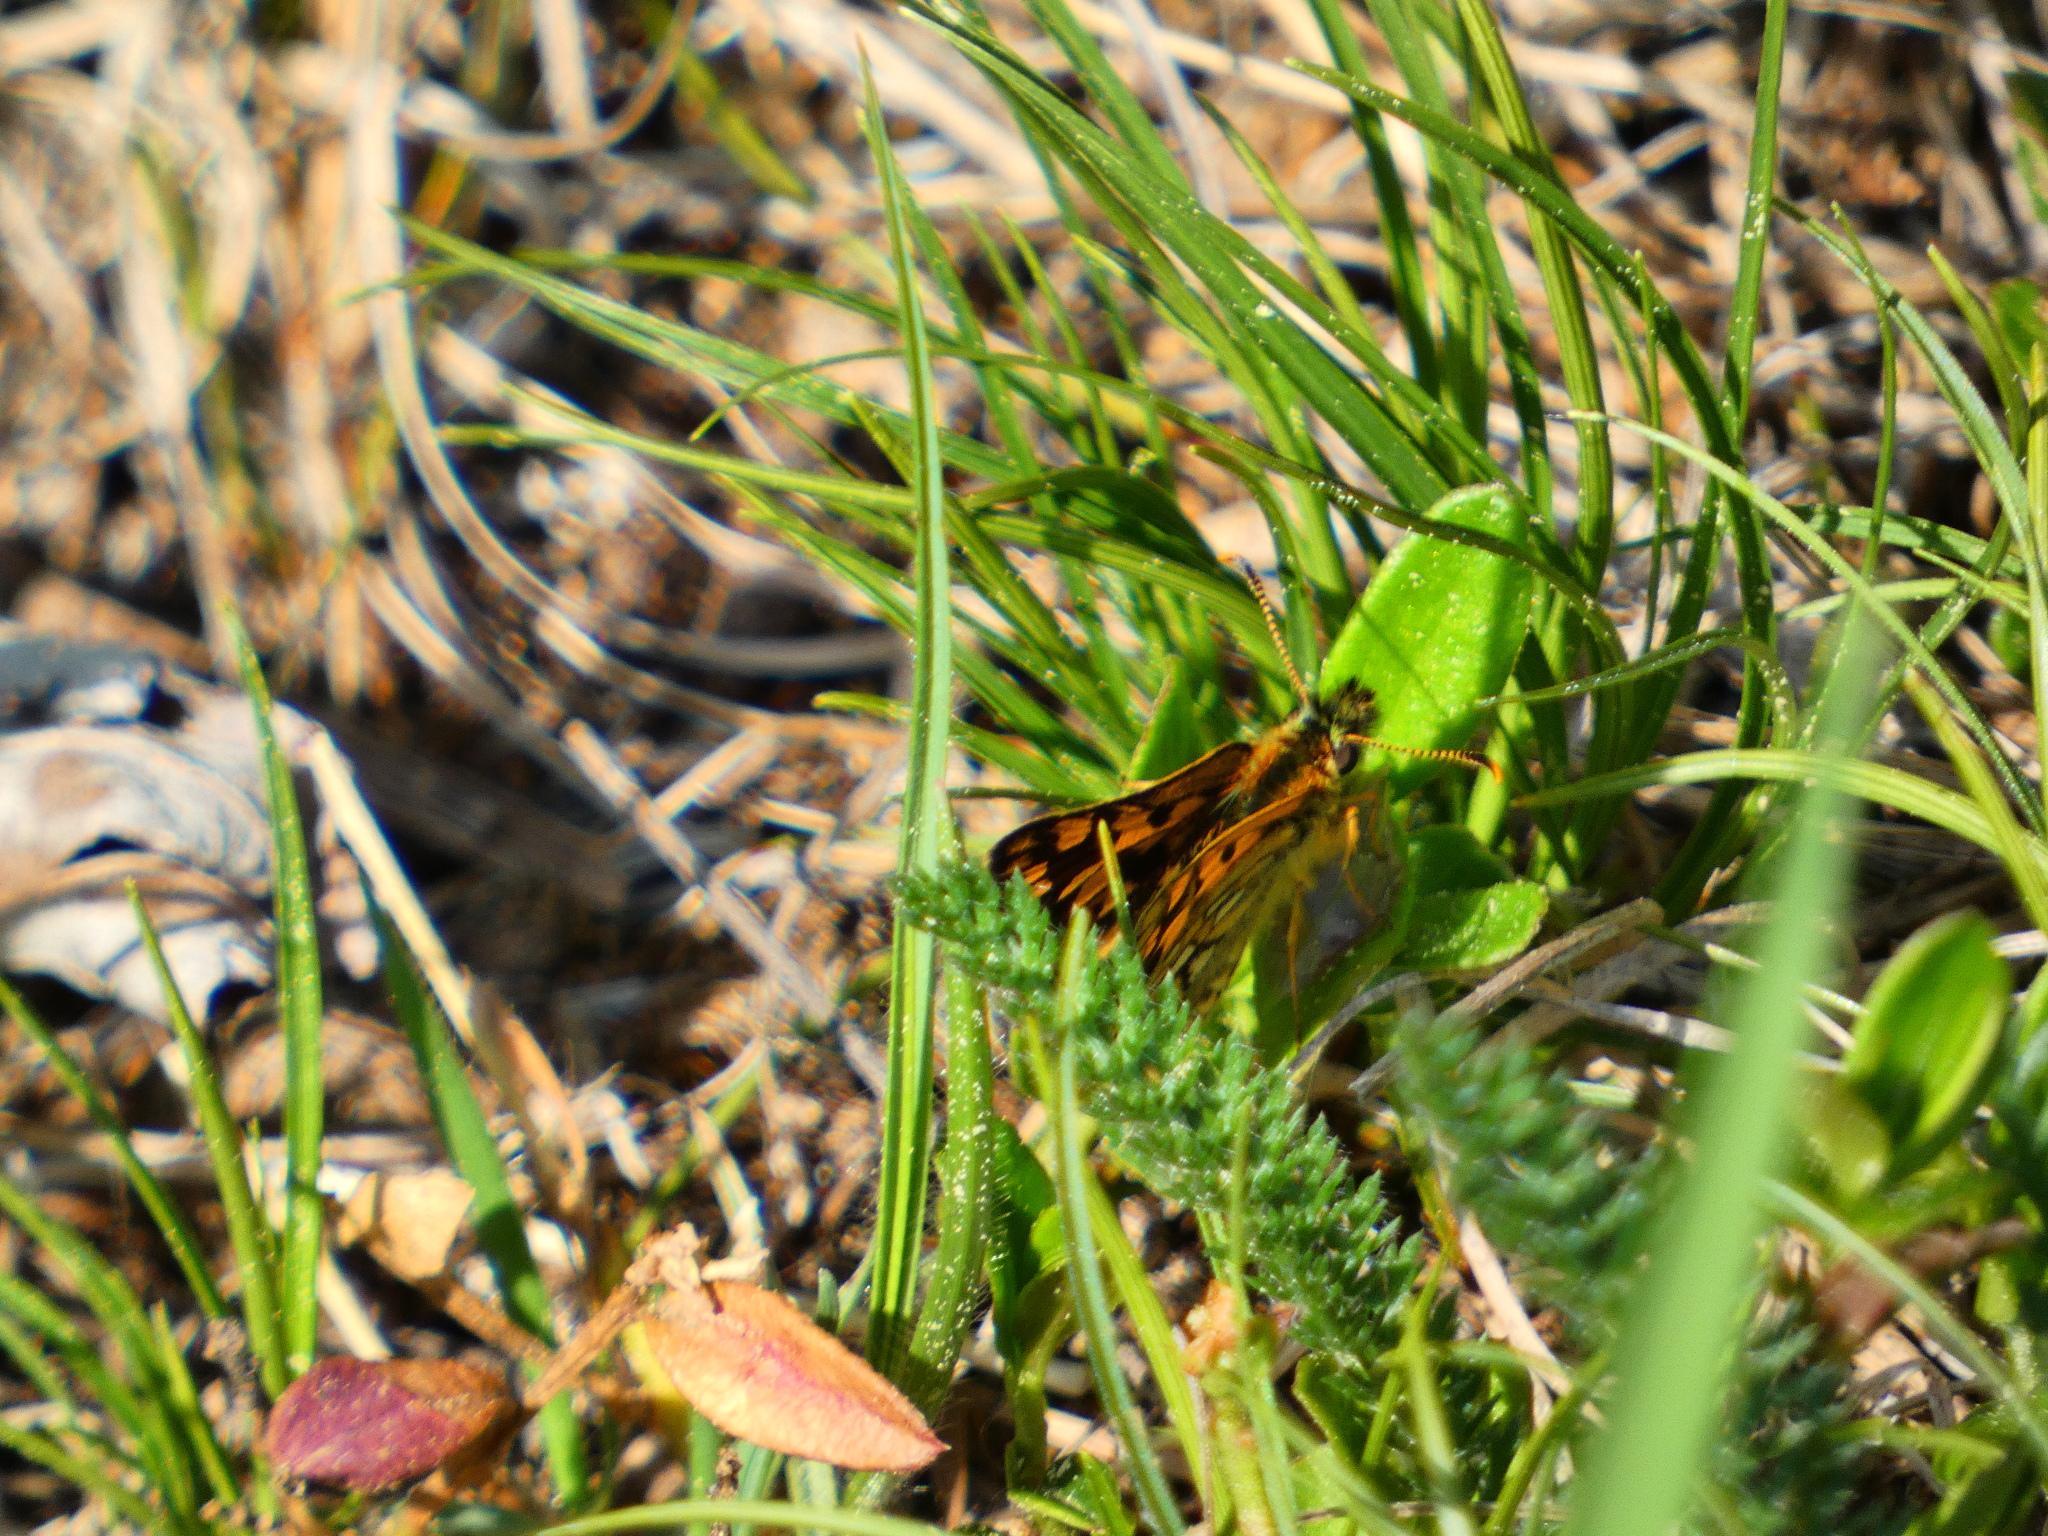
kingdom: Animalia
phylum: Arthropoda
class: Insecta
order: Lepidoptera
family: Hesperiidae
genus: Carterocephalus
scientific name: Carterocephalus palaemon
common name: Chequered skipper
